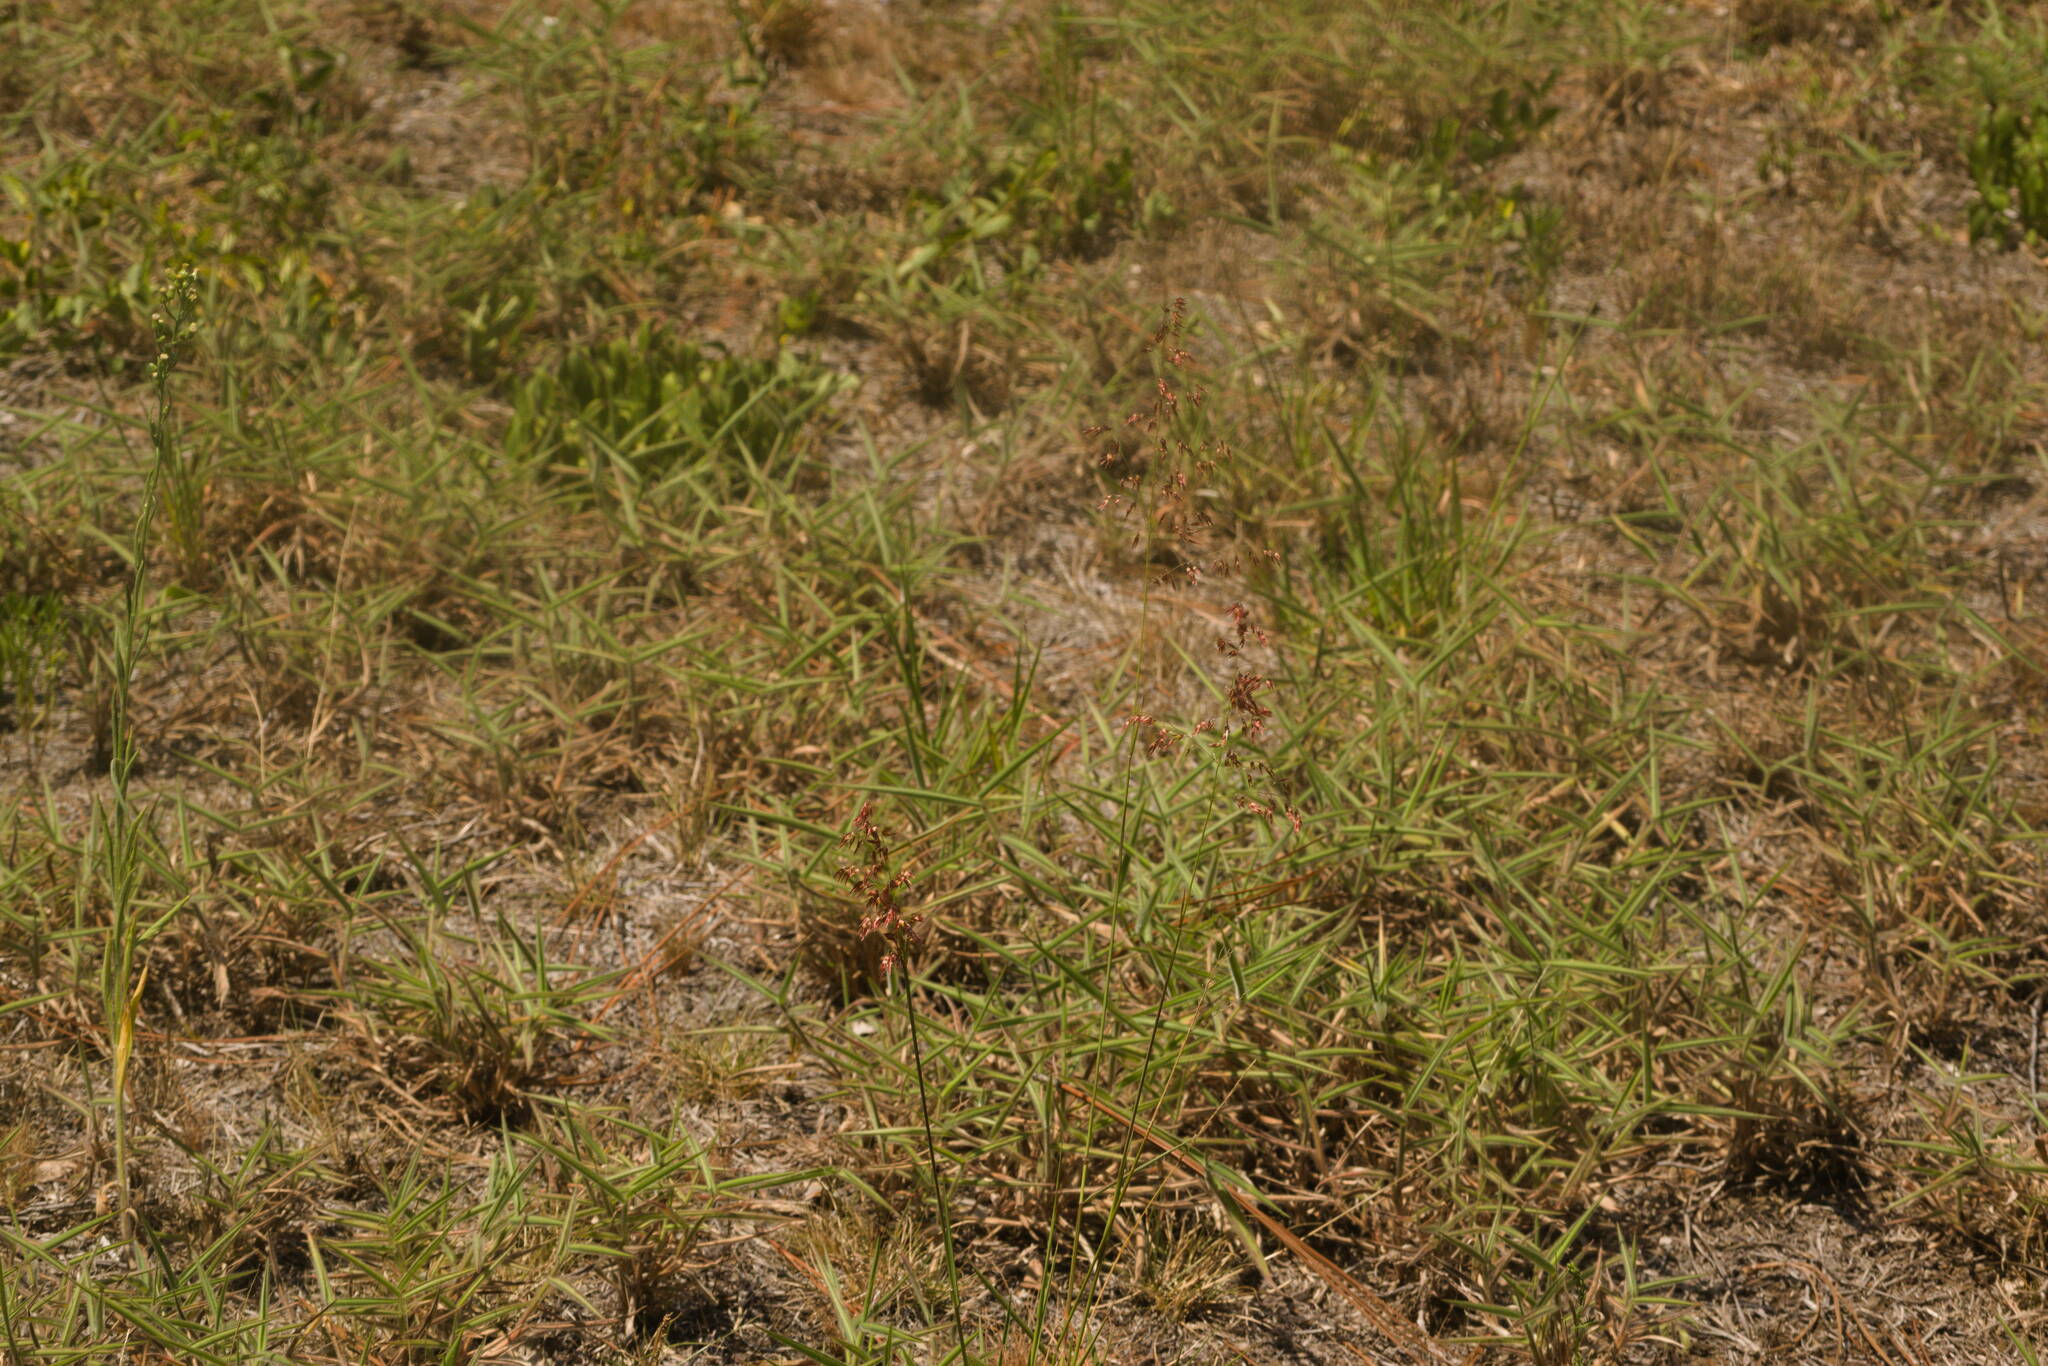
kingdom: Plantae
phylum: Tracheophyta
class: Liliopsida
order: Poales
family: Poaceae
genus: Melinis
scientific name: Melinis repens
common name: Rose natal grass
